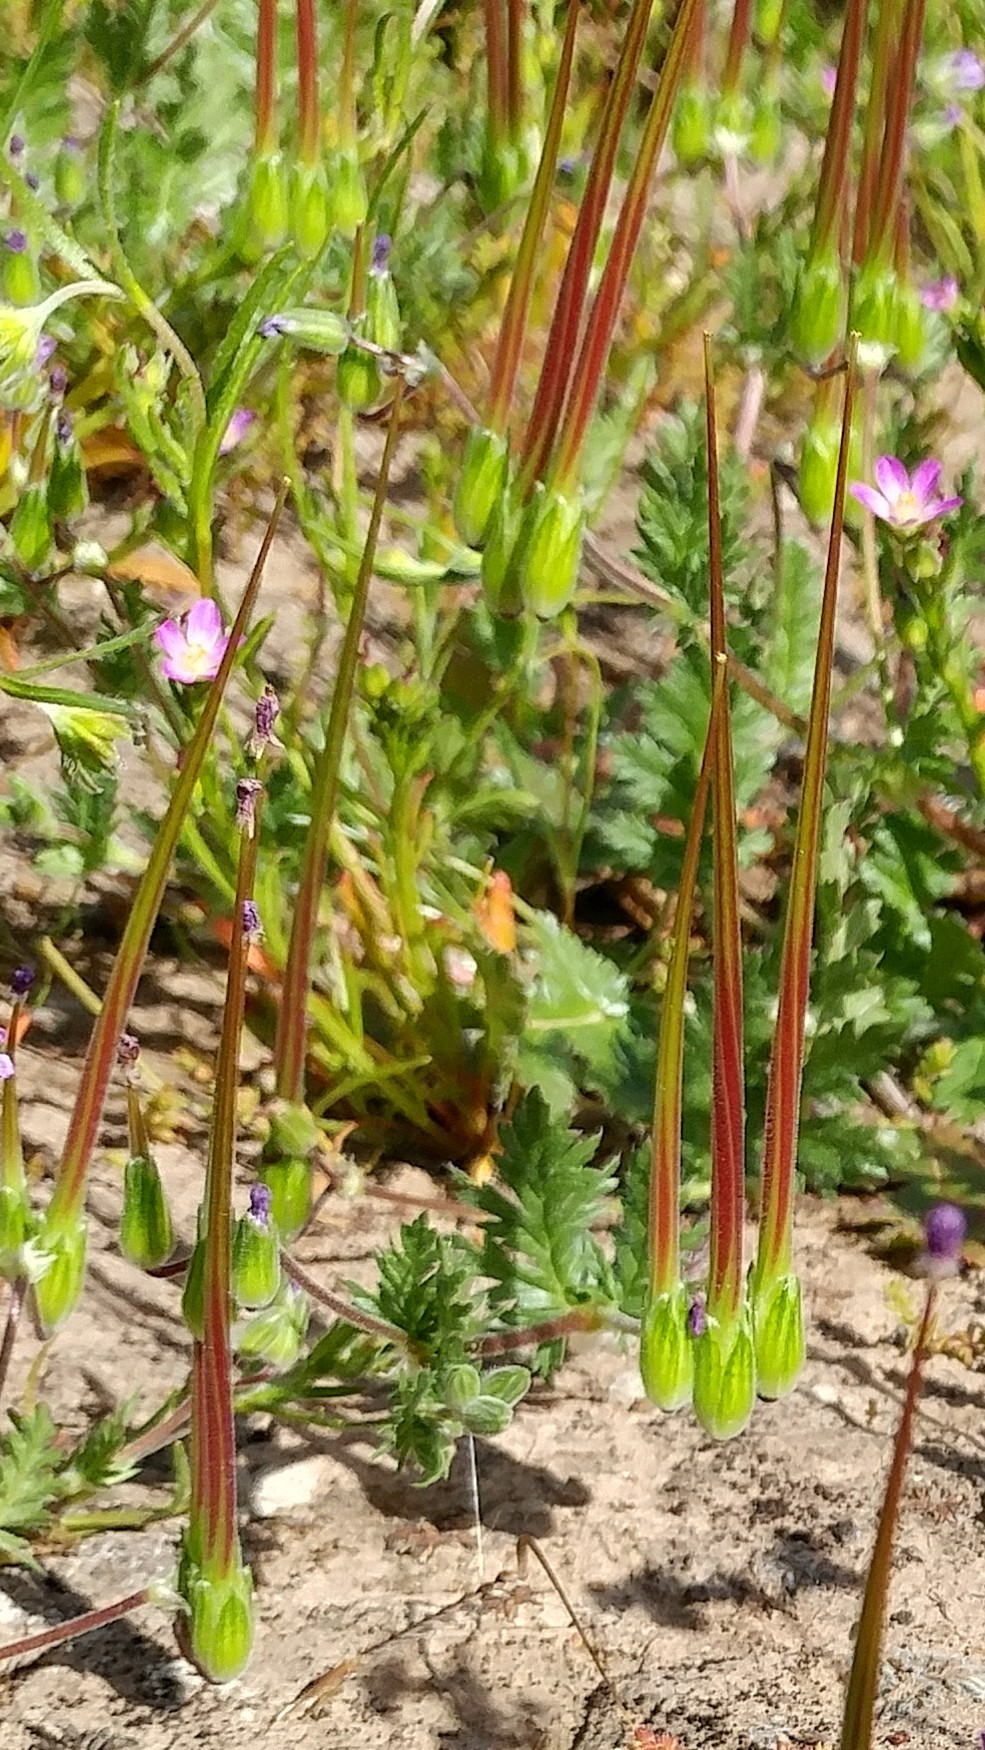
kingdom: Plantae
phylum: Tracheophyta
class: Magnoliopsida
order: Geraniales
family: Geraniaceae
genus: Erodium
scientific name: Erodium botrys
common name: Mediterranean stork's-bill
